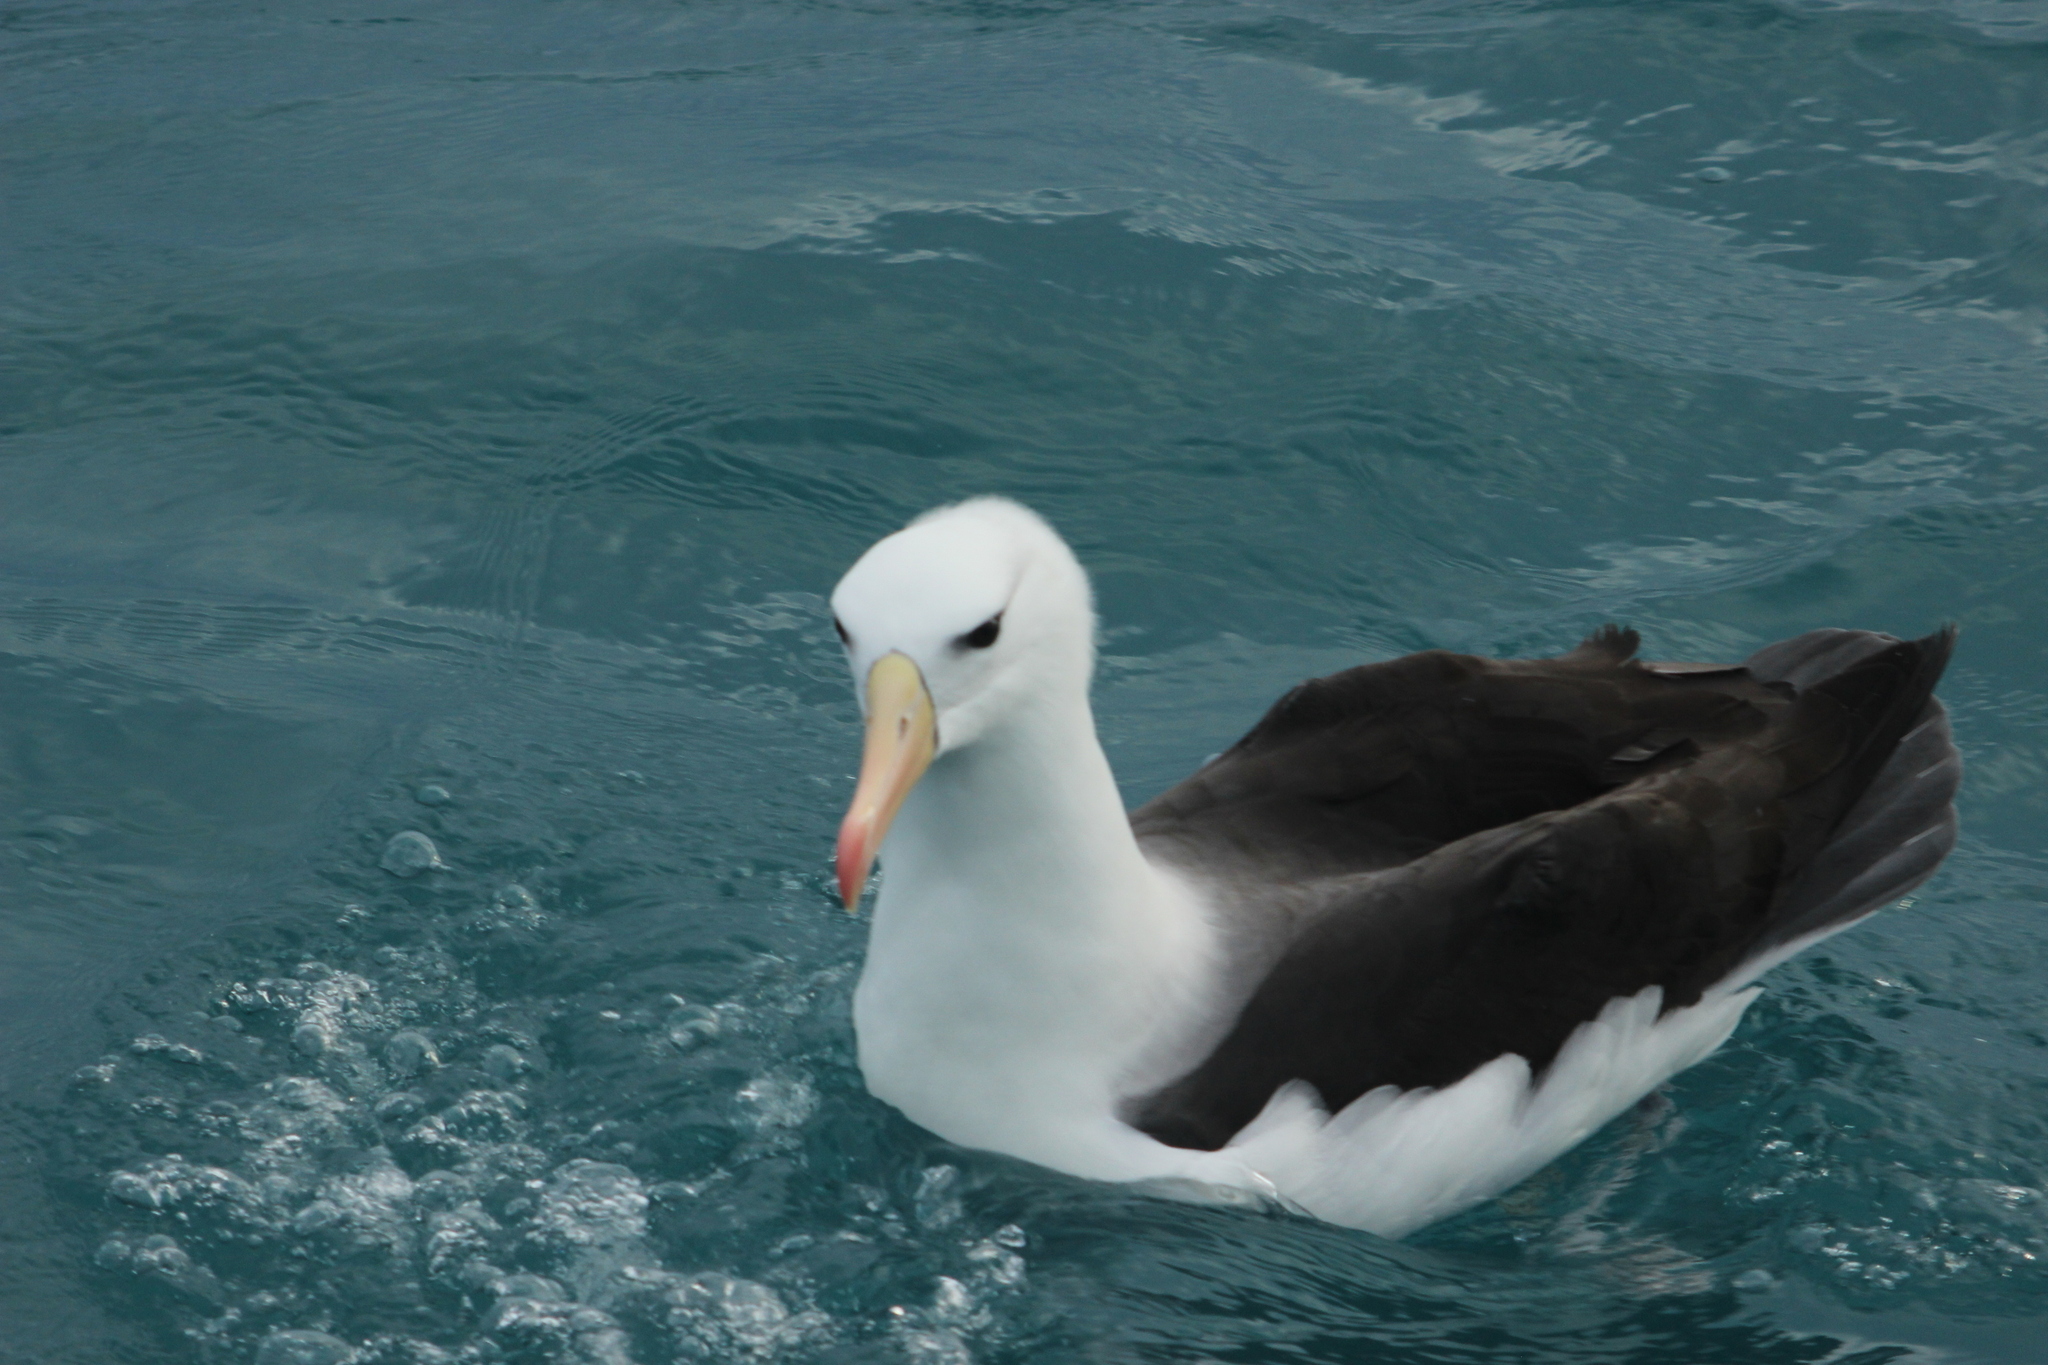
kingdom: Animalia
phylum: Chordata
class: Aves
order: Procellariiformes
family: Diomedeidae
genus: Thalassarche
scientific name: Thalassarche melanophris
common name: Black-browed albatross
